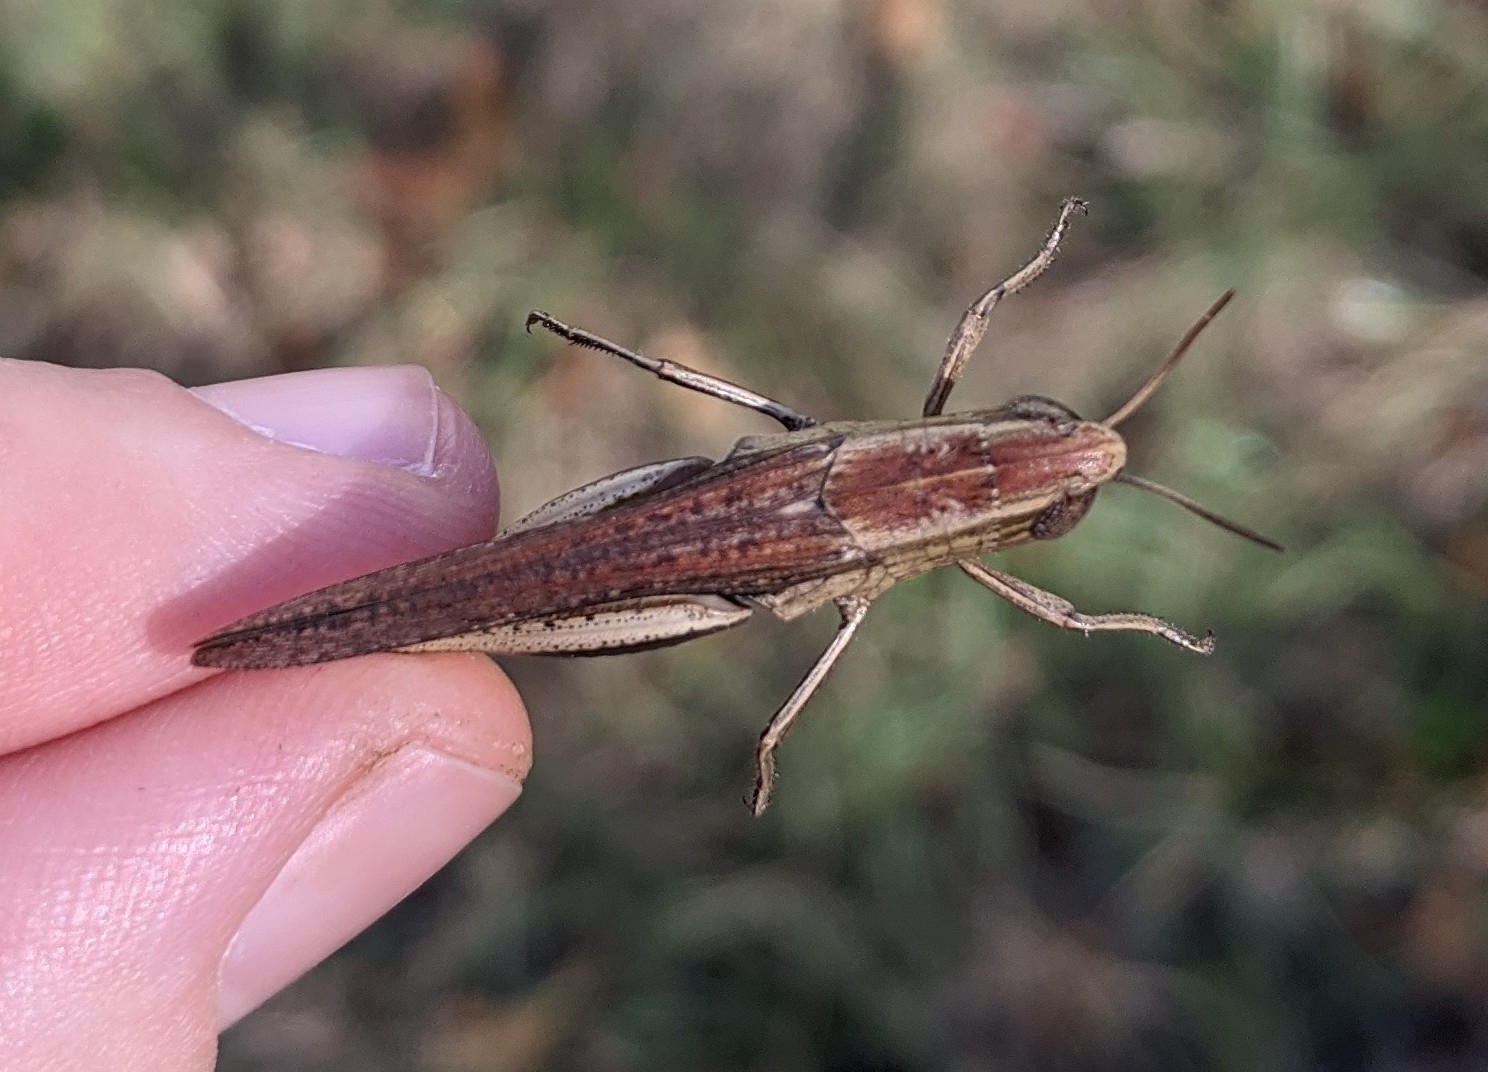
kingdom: Animalia
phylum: Arthropoda
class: Insecta
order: Orthoptera
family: Acrididae
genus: Amblytropidia
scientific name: Amblytropidia mysteca
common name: Brown winter grasshopper
